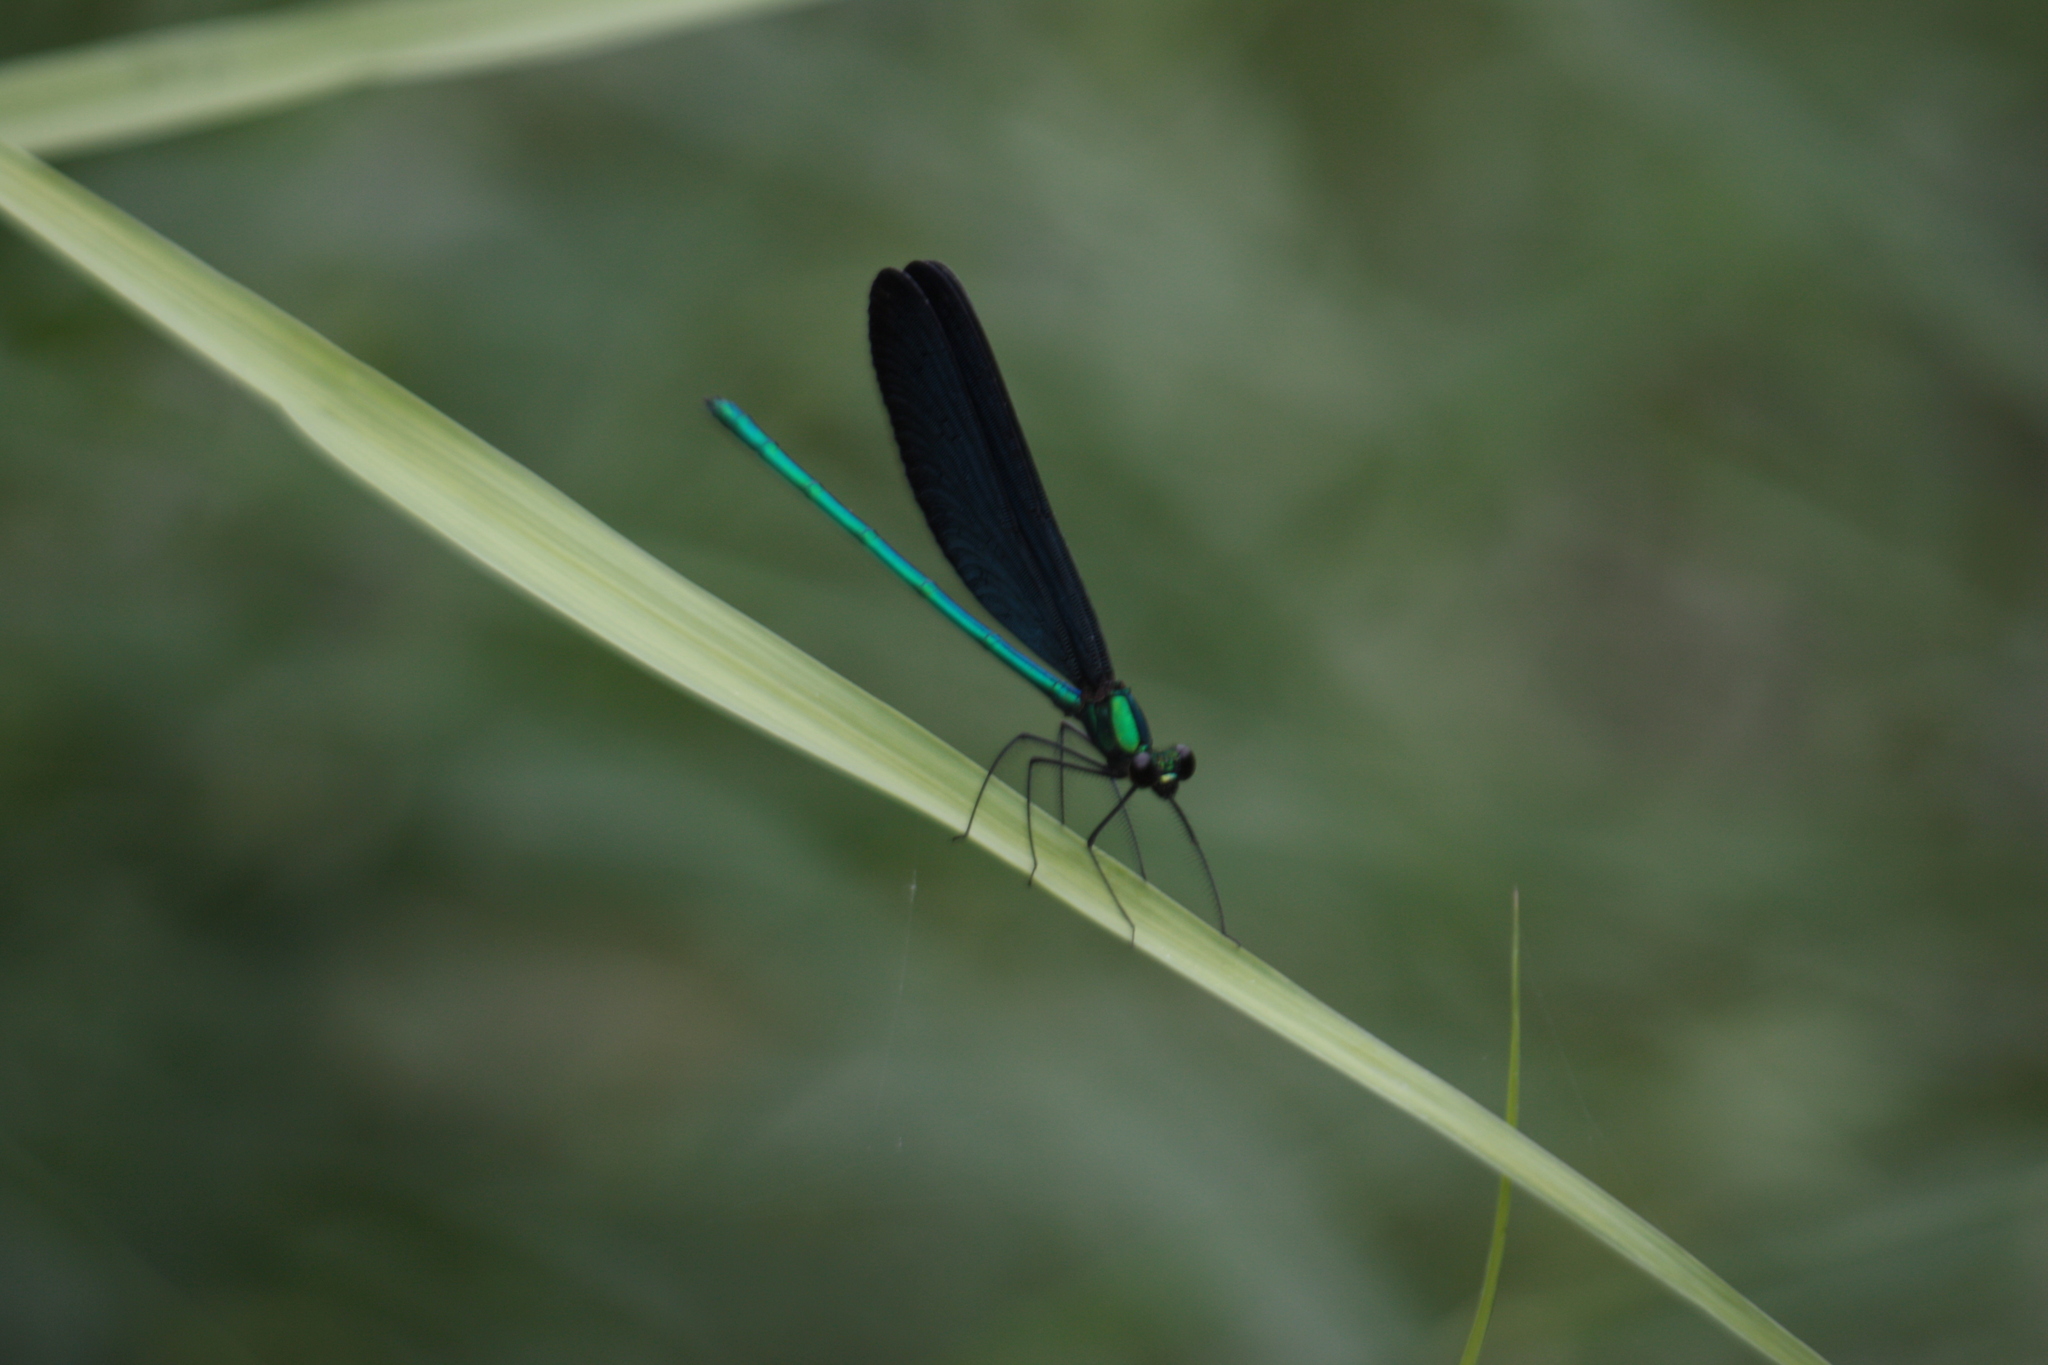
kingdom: Animalia
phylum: Arthropoda
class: Insecta
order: Odonata
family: Calopterygidae
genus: Matrona
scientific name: Matrona cyanoptera
